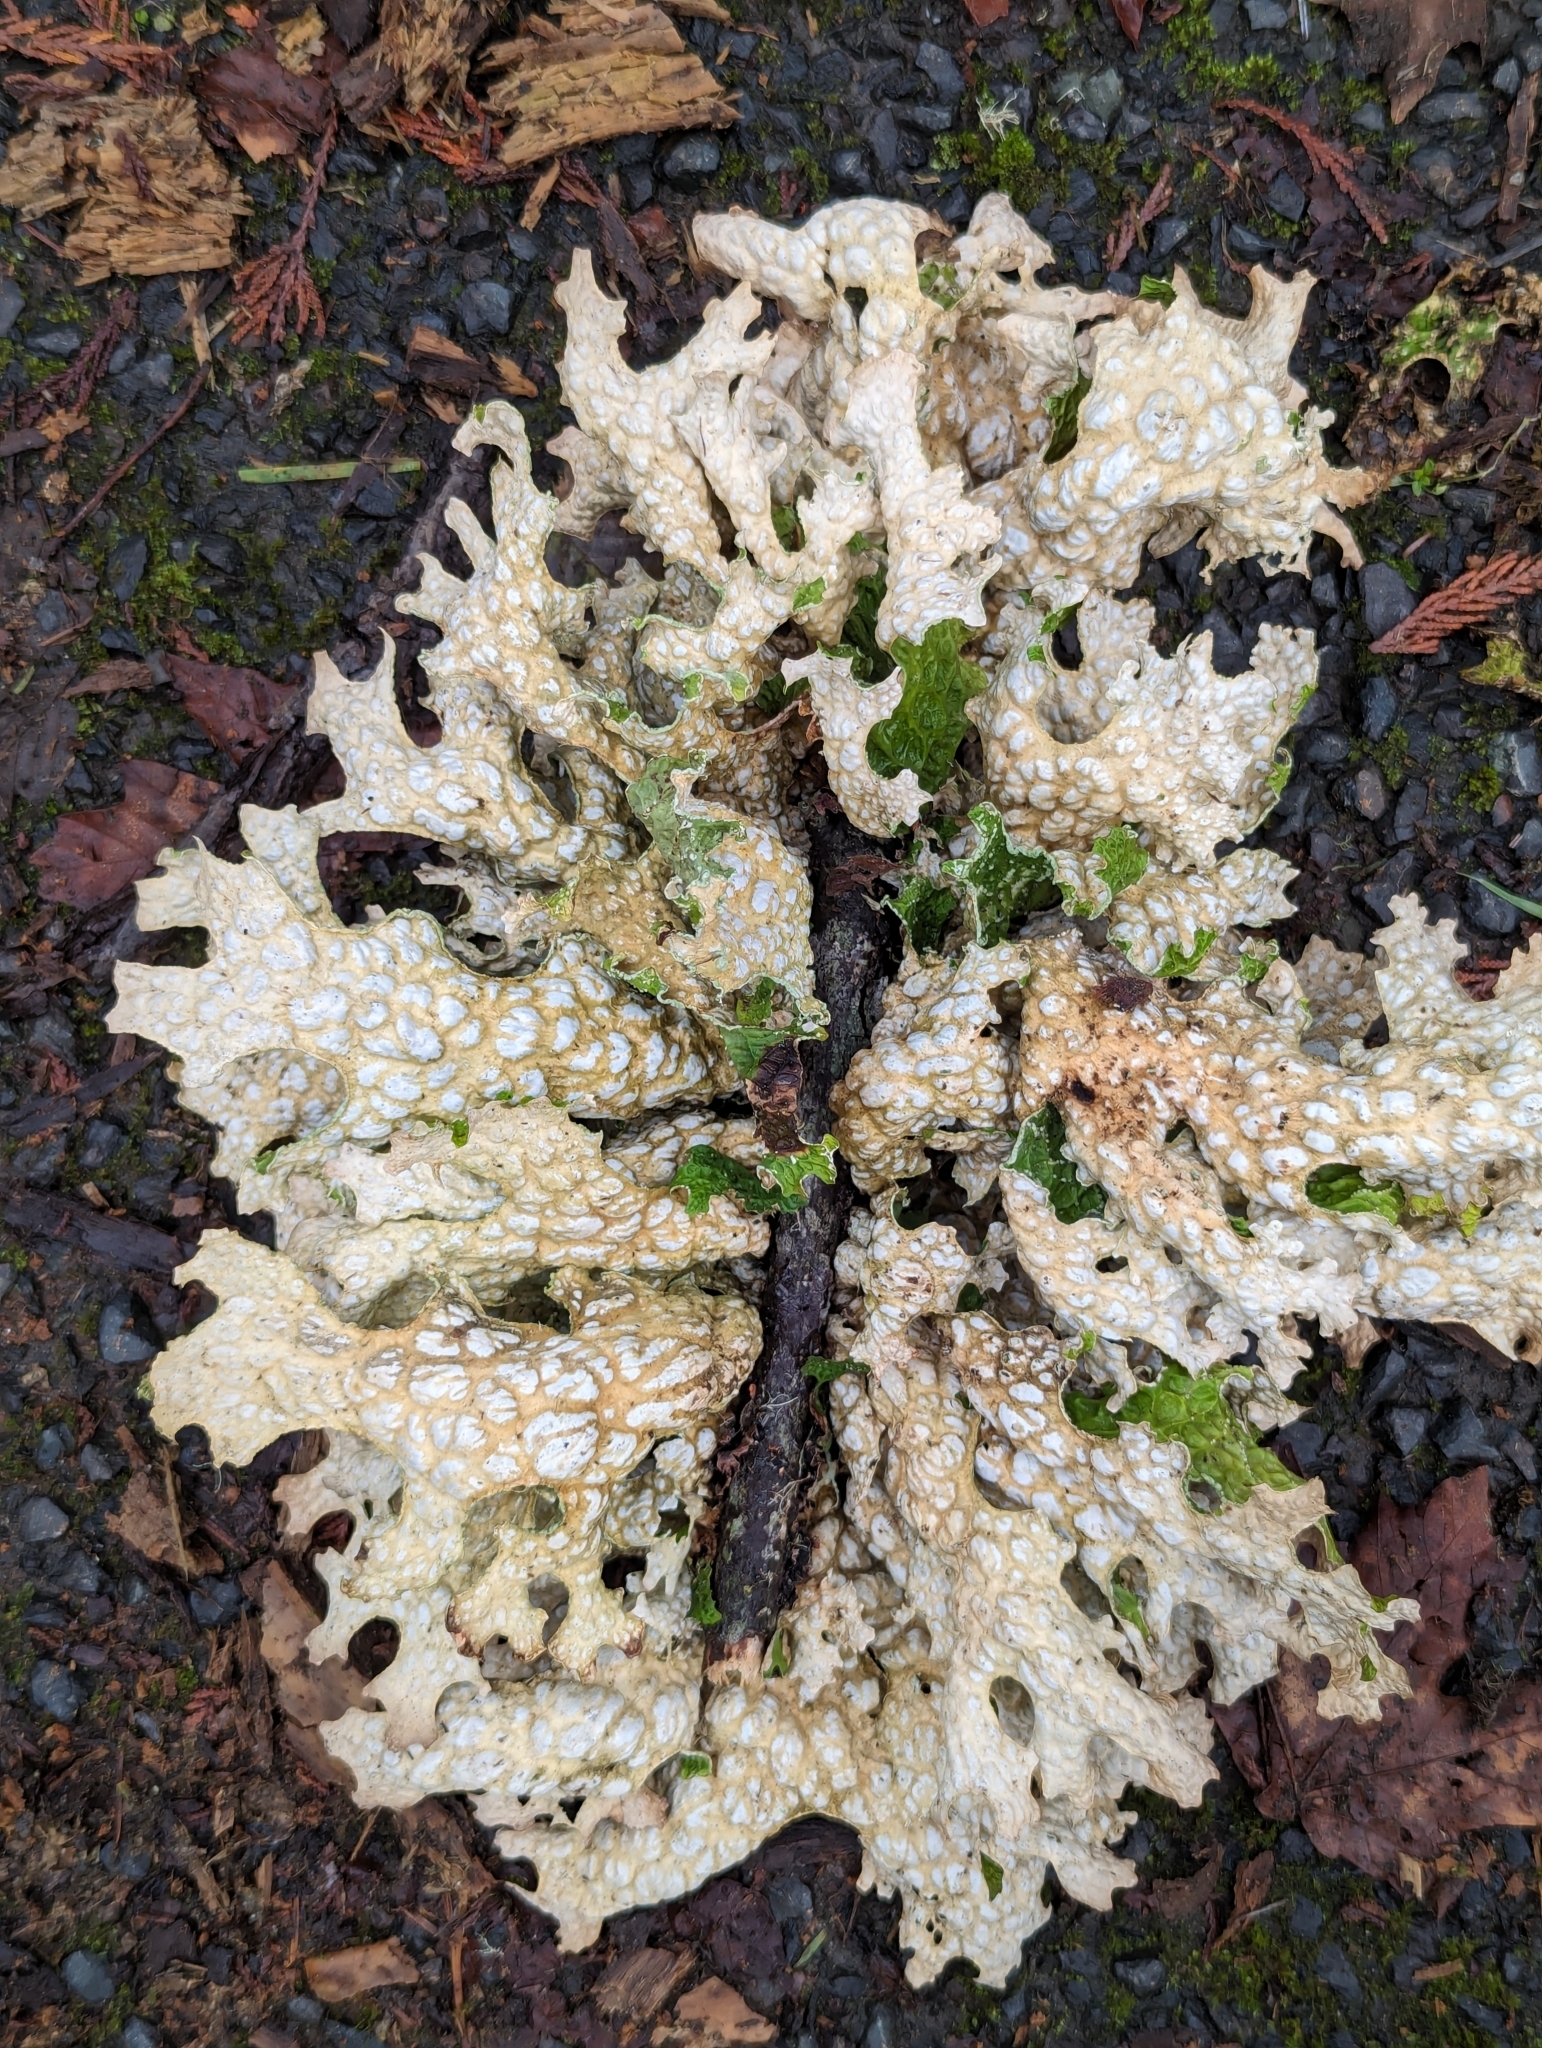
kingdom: Fungi
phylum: Ascomycota
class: Lecanoromycetes
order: Peltigerales
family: Lobariaceae
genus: Lobaria
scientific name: Lobaria pulmonaria
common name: Lungwort
